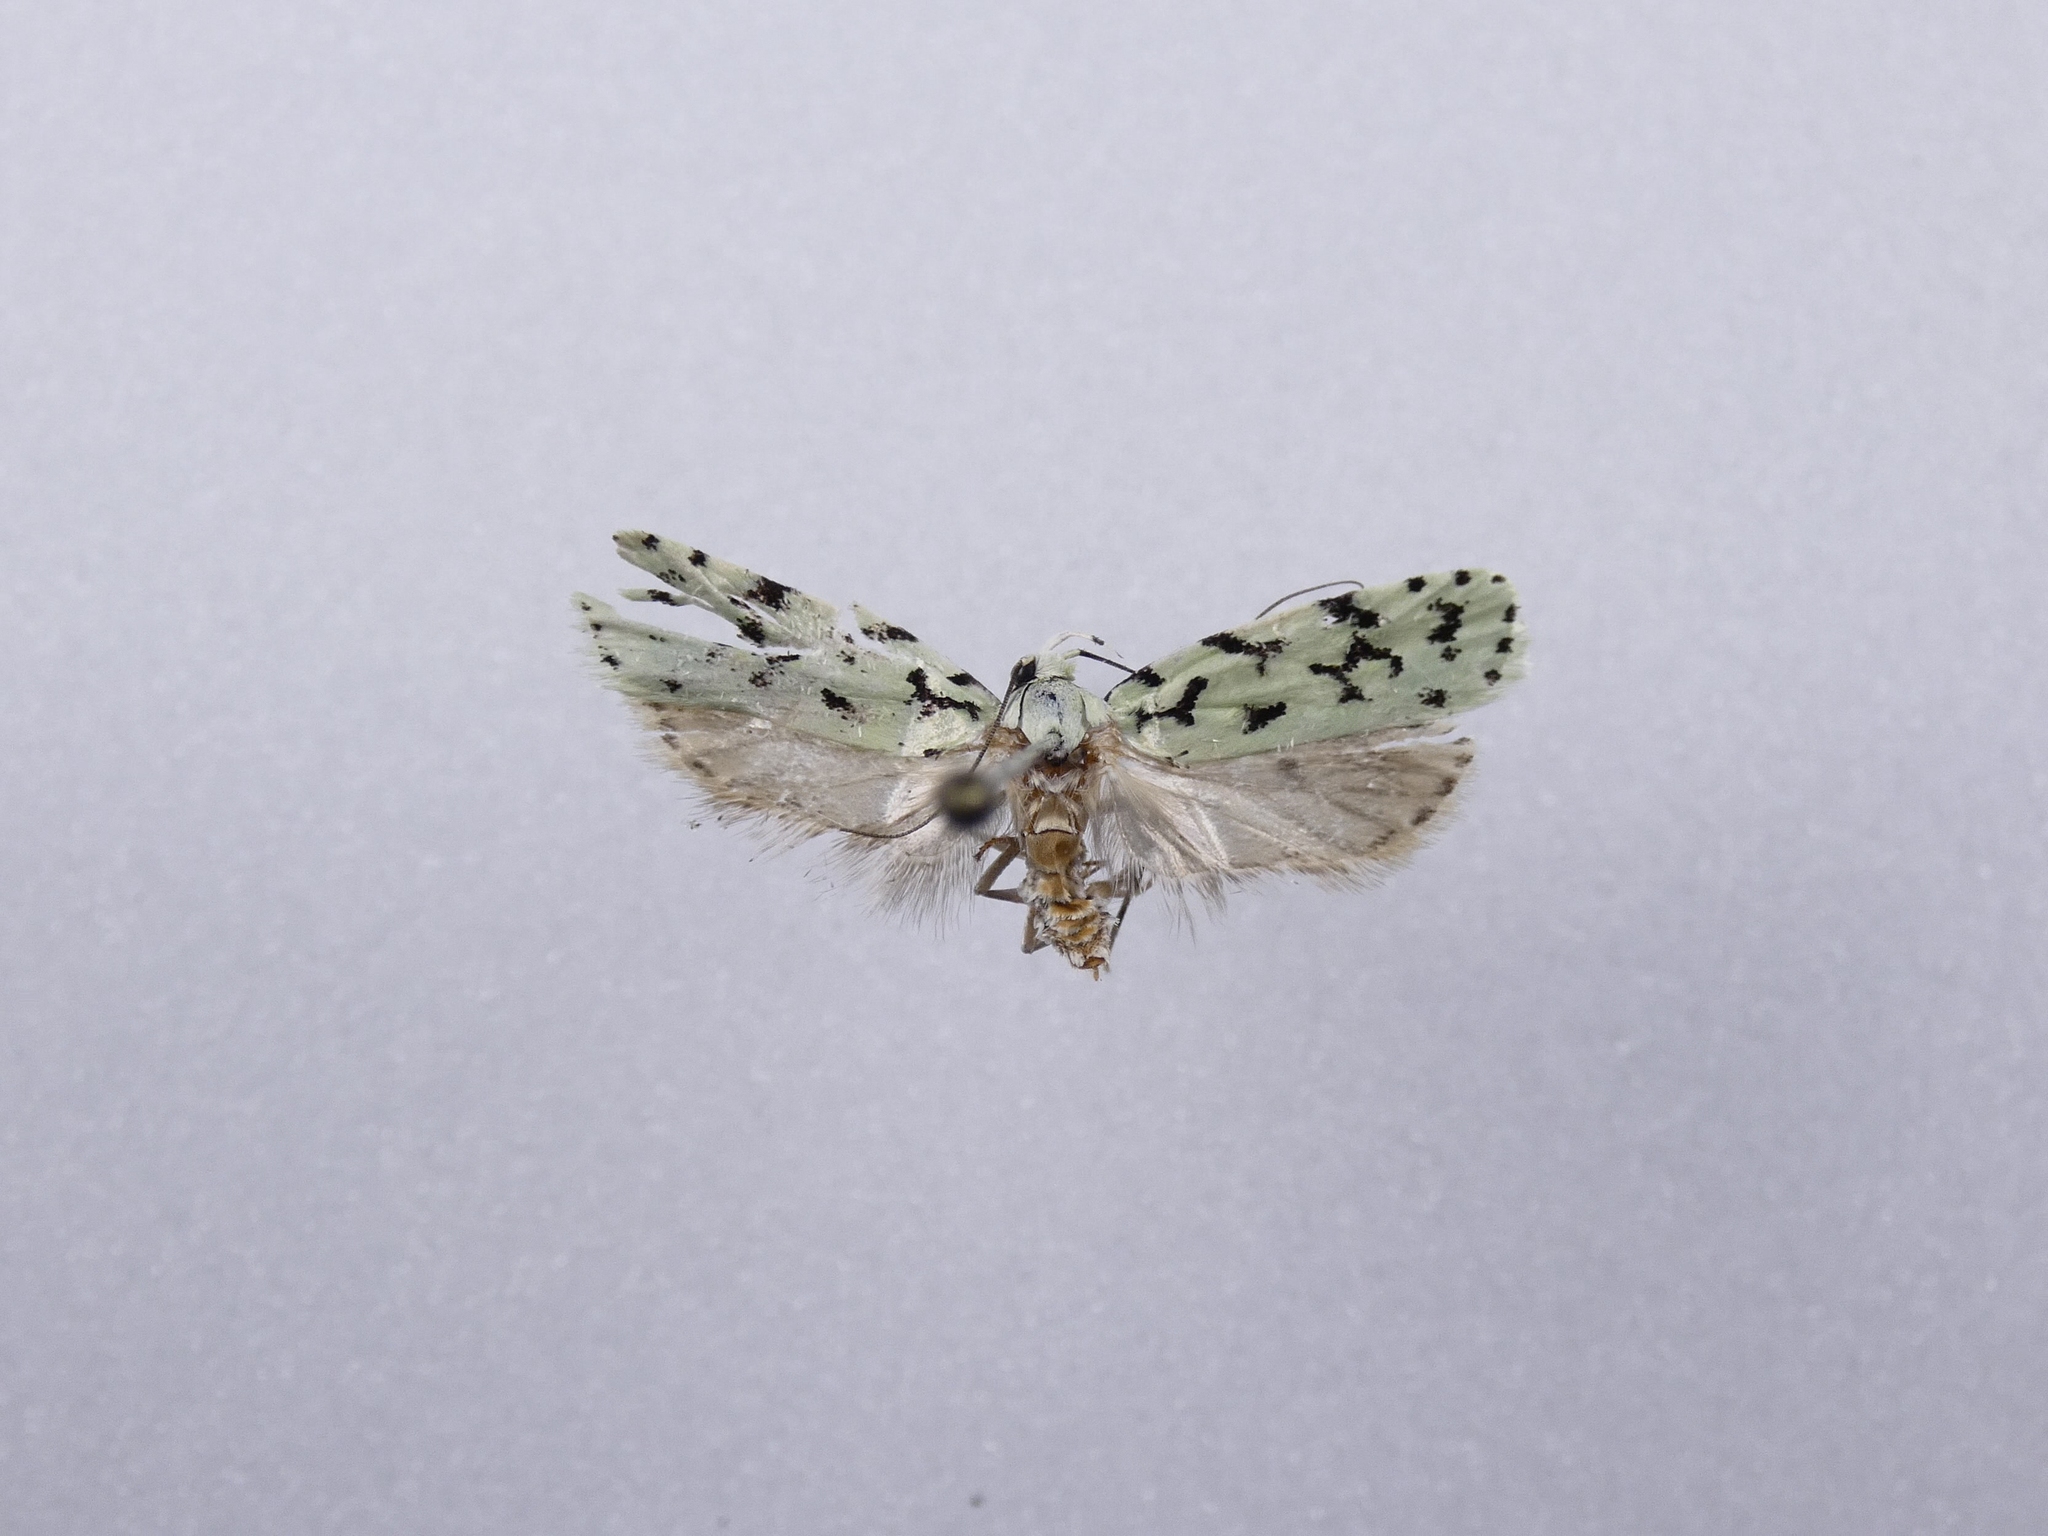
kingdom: Animalia
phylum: Arthropoda
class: Insecta
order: Lepidoptera
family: Oecophoridae
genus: Izatha
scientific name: Izatha huttoni
